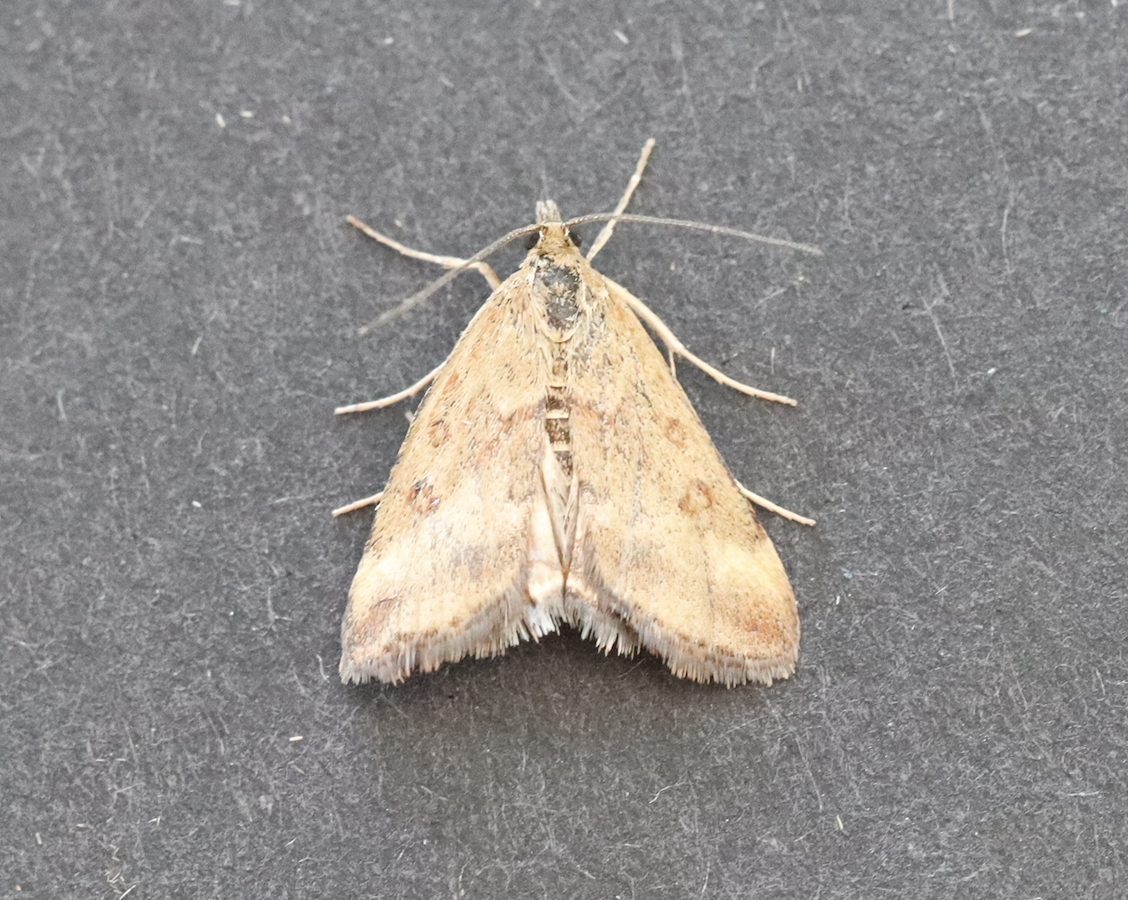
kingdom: Animalia
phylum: Arthropoda
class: Insecta
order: Lepidoptera
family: Crambidae
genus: Pyrausta
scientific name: Pyrausta despicata
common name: Straw-barred pearl
